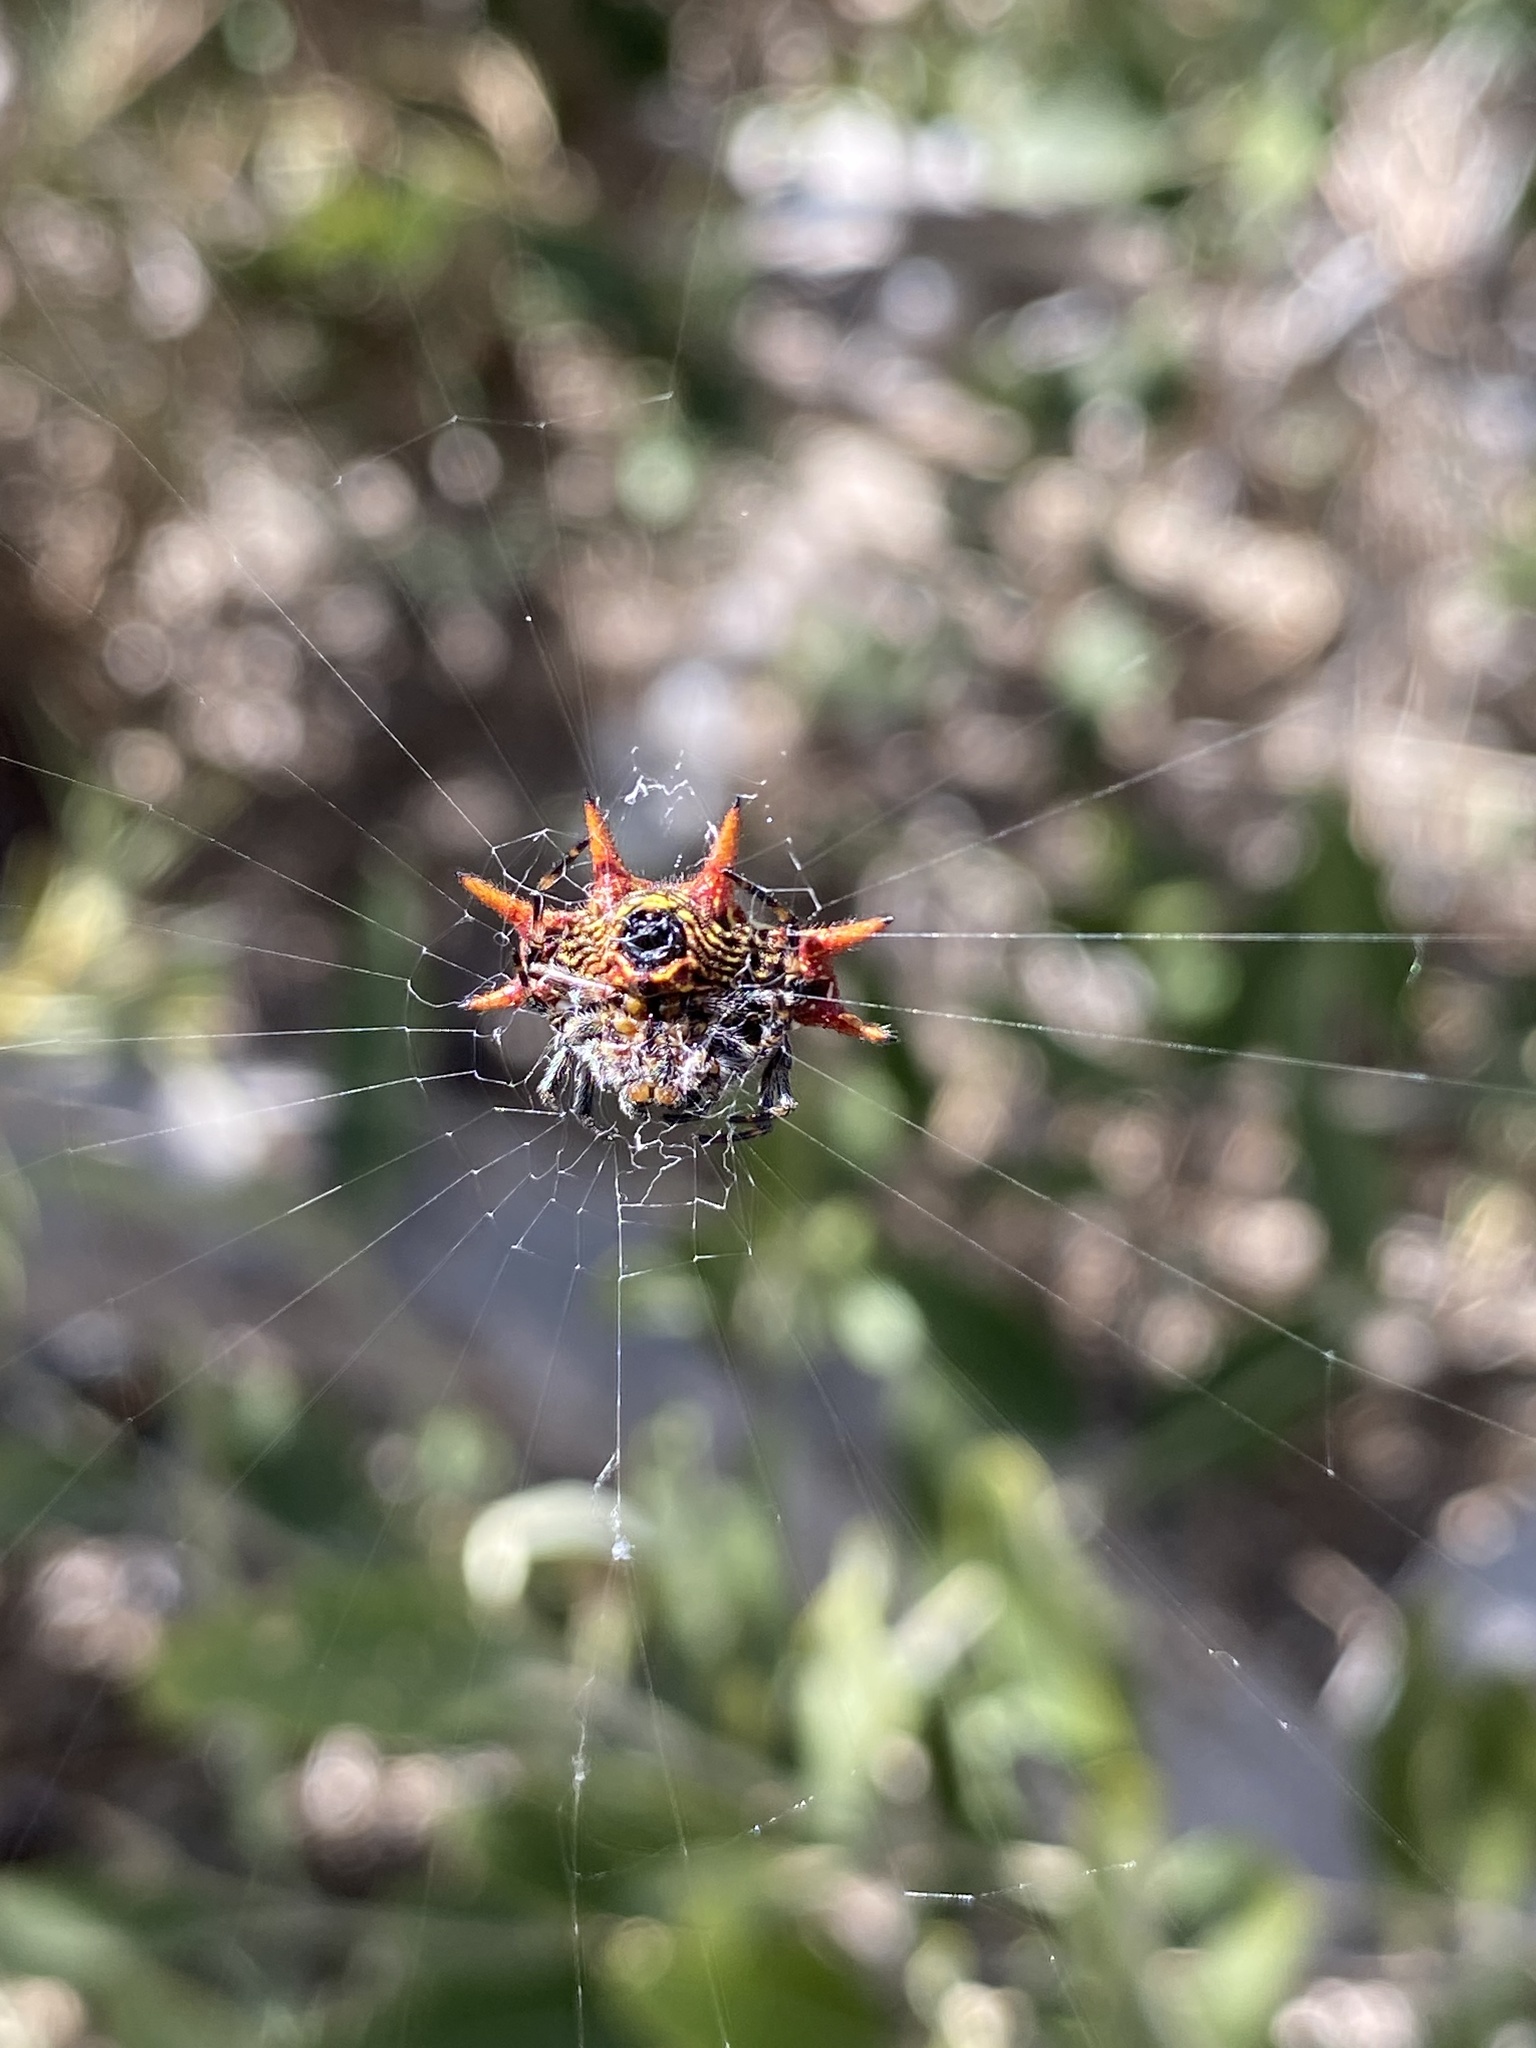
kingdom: Animalia
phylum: Arthropoda
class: Arachnida
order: Araneae
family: Araneidae
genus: Gasteracantha
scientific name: Gasteracantha cancriformis
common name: Orb weavers
